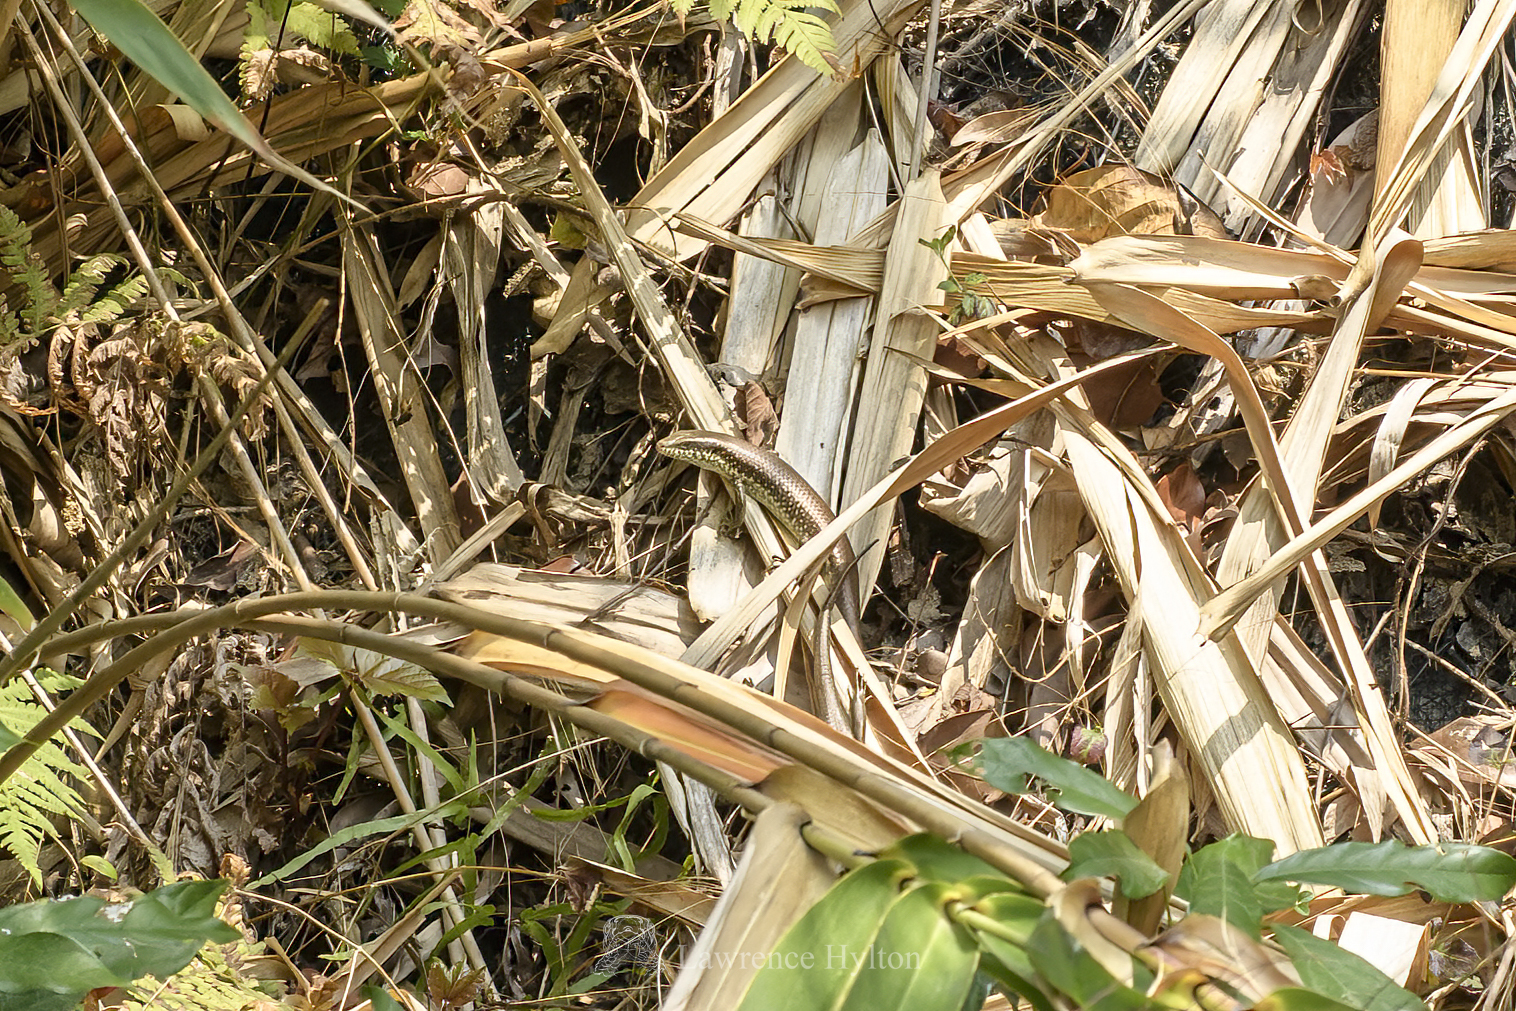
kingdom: Animalia
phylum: Chordata
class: Squamata
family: Scincidae
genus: Eutropis
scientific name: Eutropis longicaudata
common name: Long-tailed sun skink
